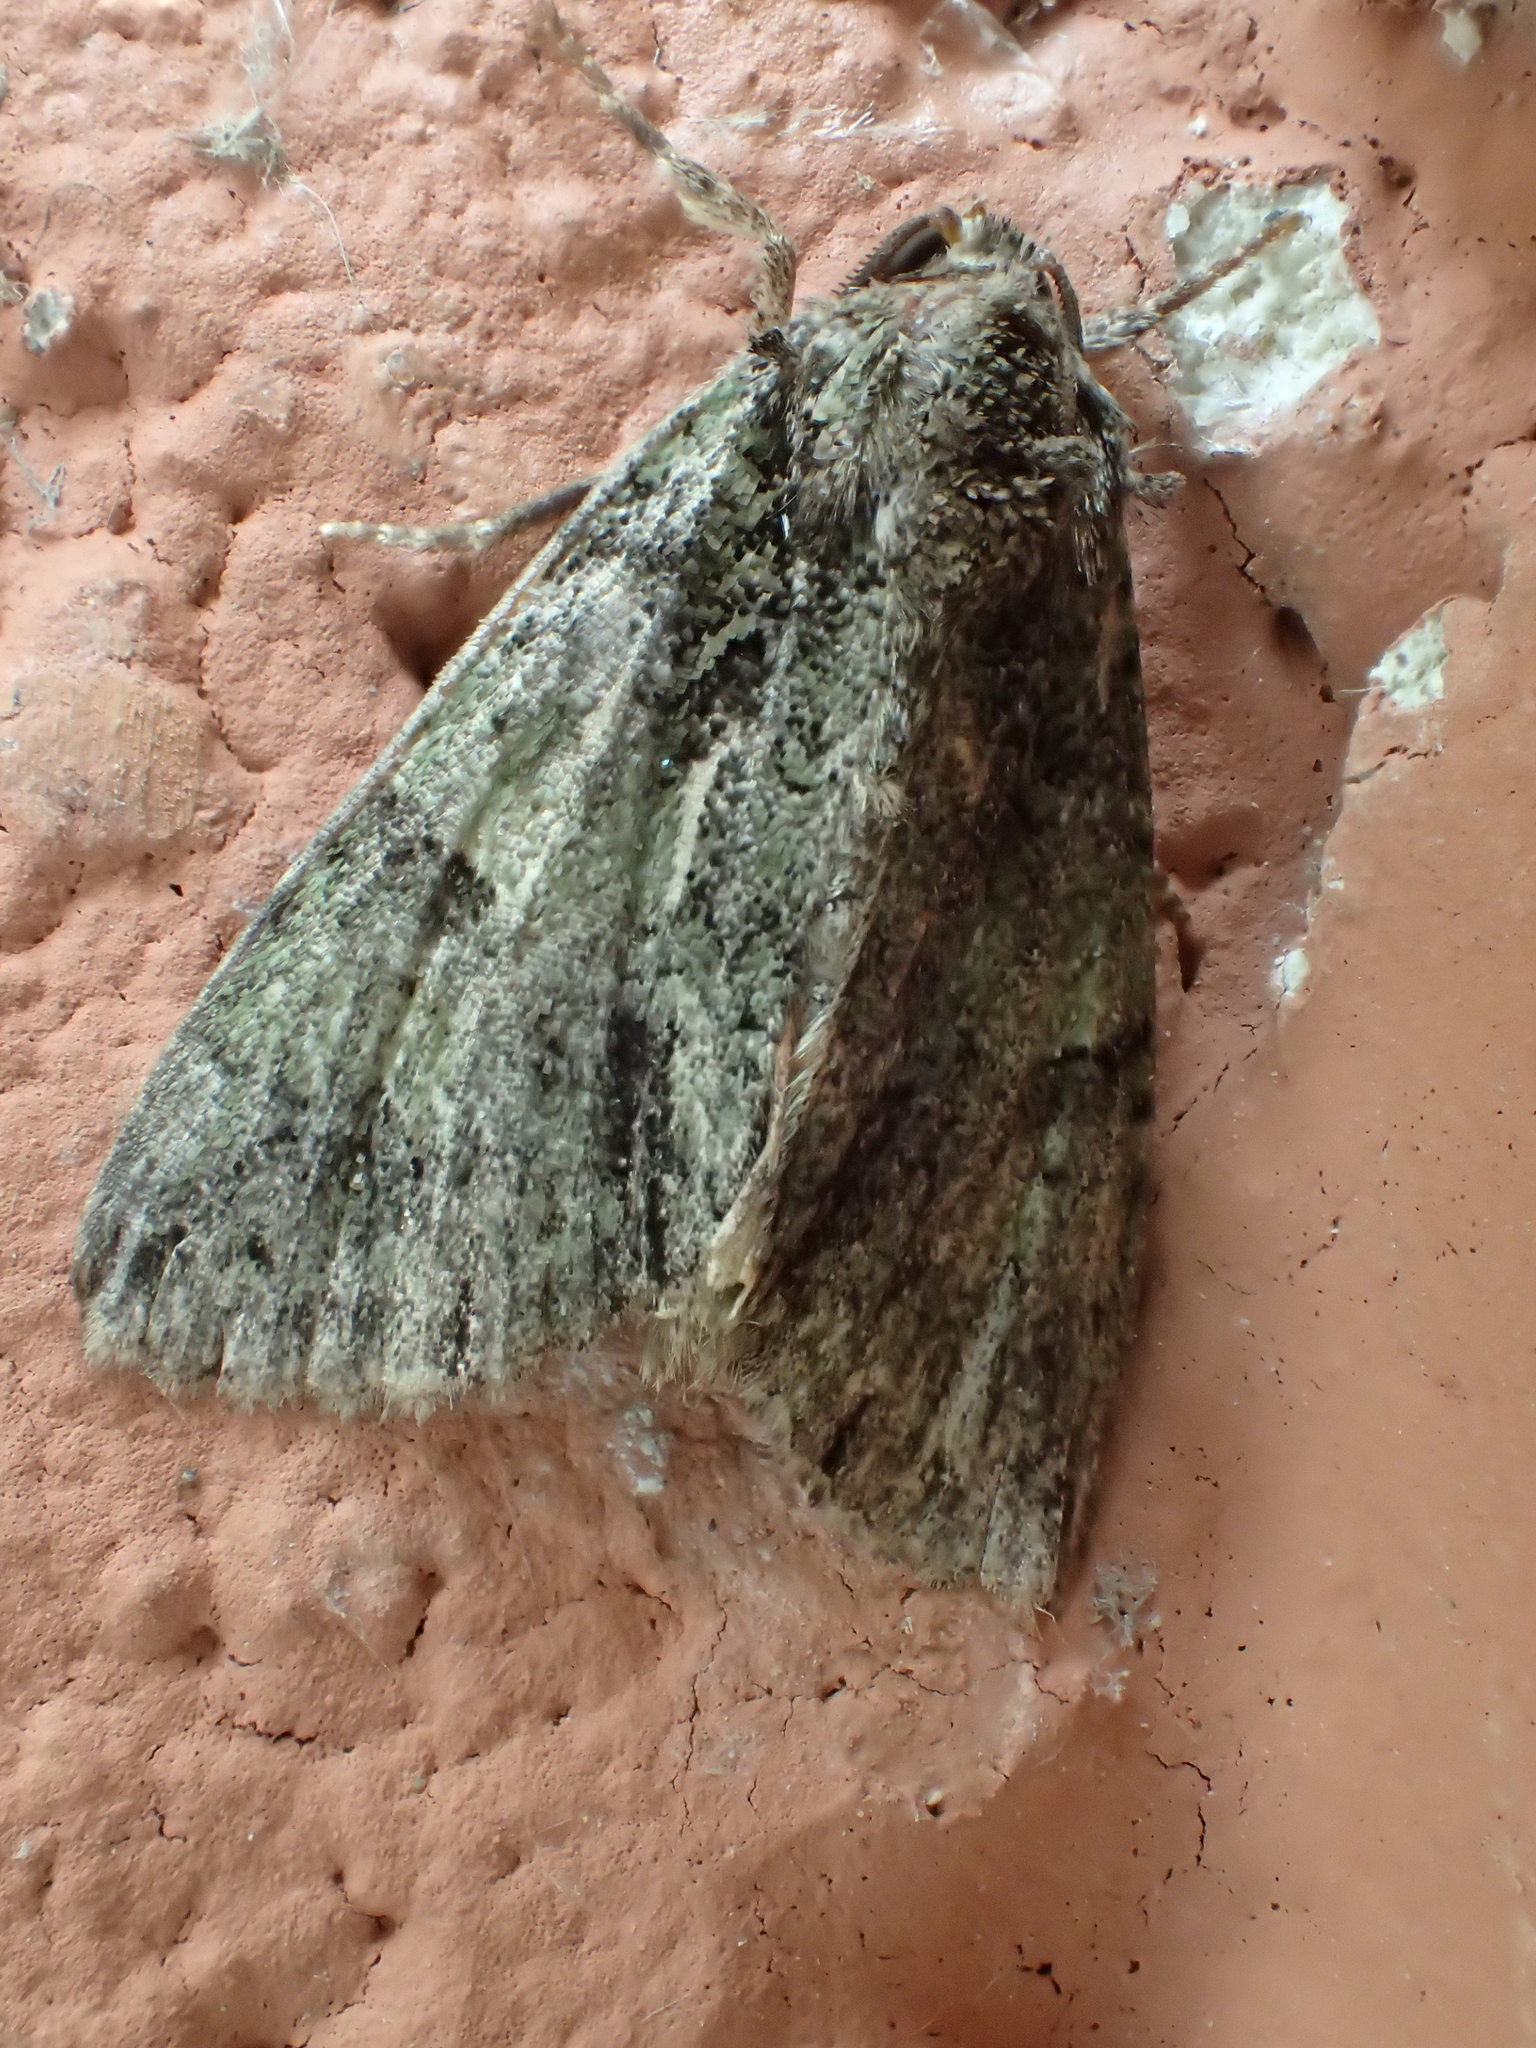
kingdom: Animalia
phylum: Arthropoda
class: Insecta
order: Lepidoptera
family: Noctuidae
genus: Polyphaenis
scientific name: Polyphaenis sericata
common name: Guernsey underwing
